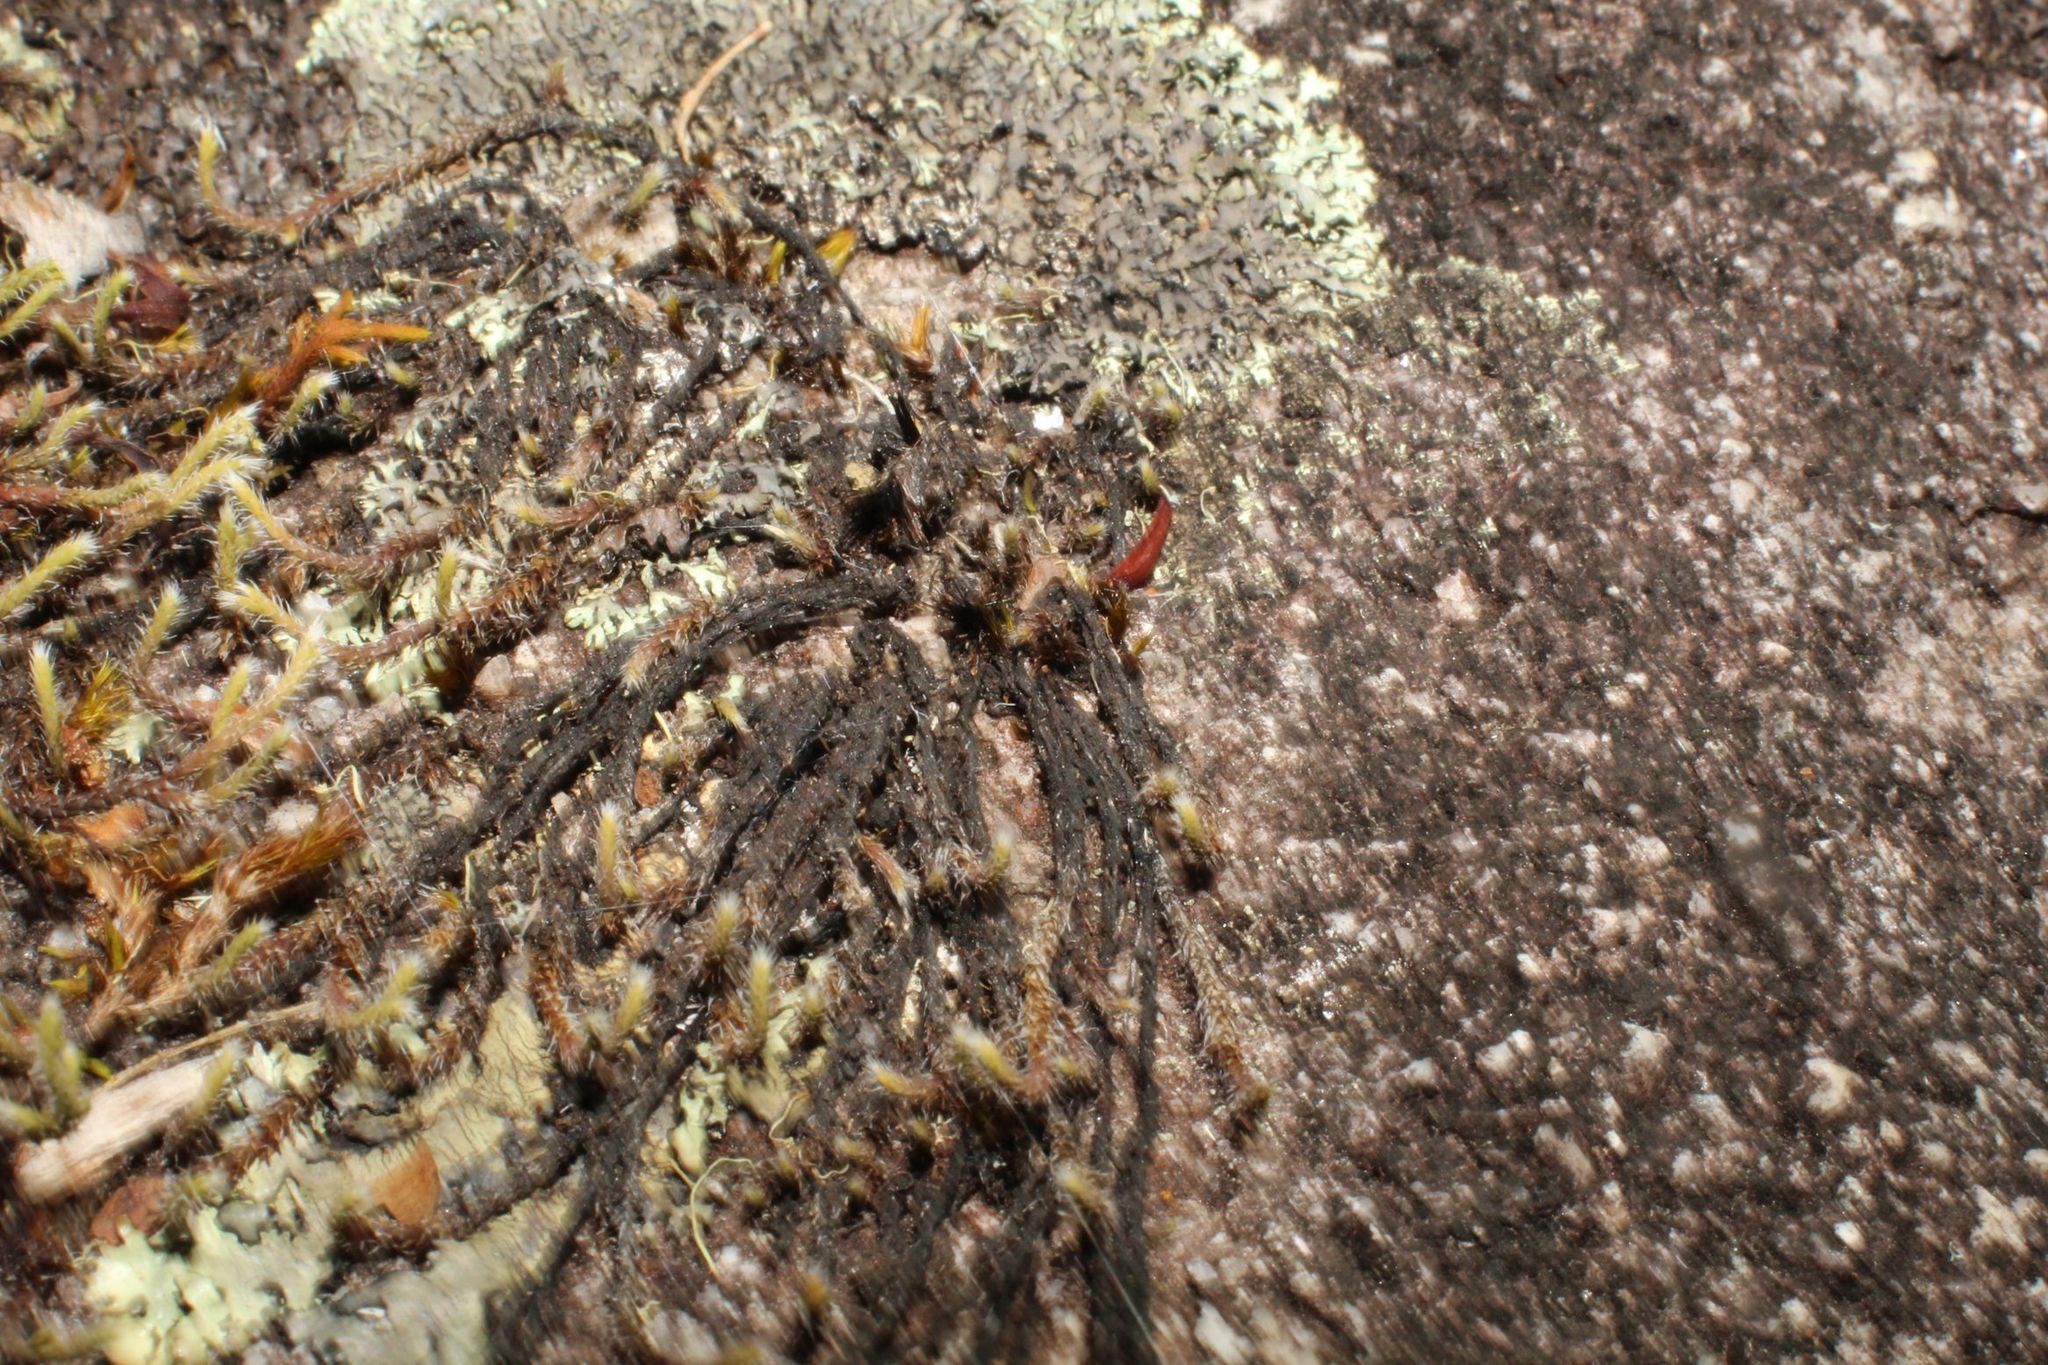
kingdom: Plantae
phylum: Bryophyta
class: Bryopsida
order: Hedwigiales
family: Hedwigiaceae
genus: Hedwigia
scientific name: Hedwigia ciliata
